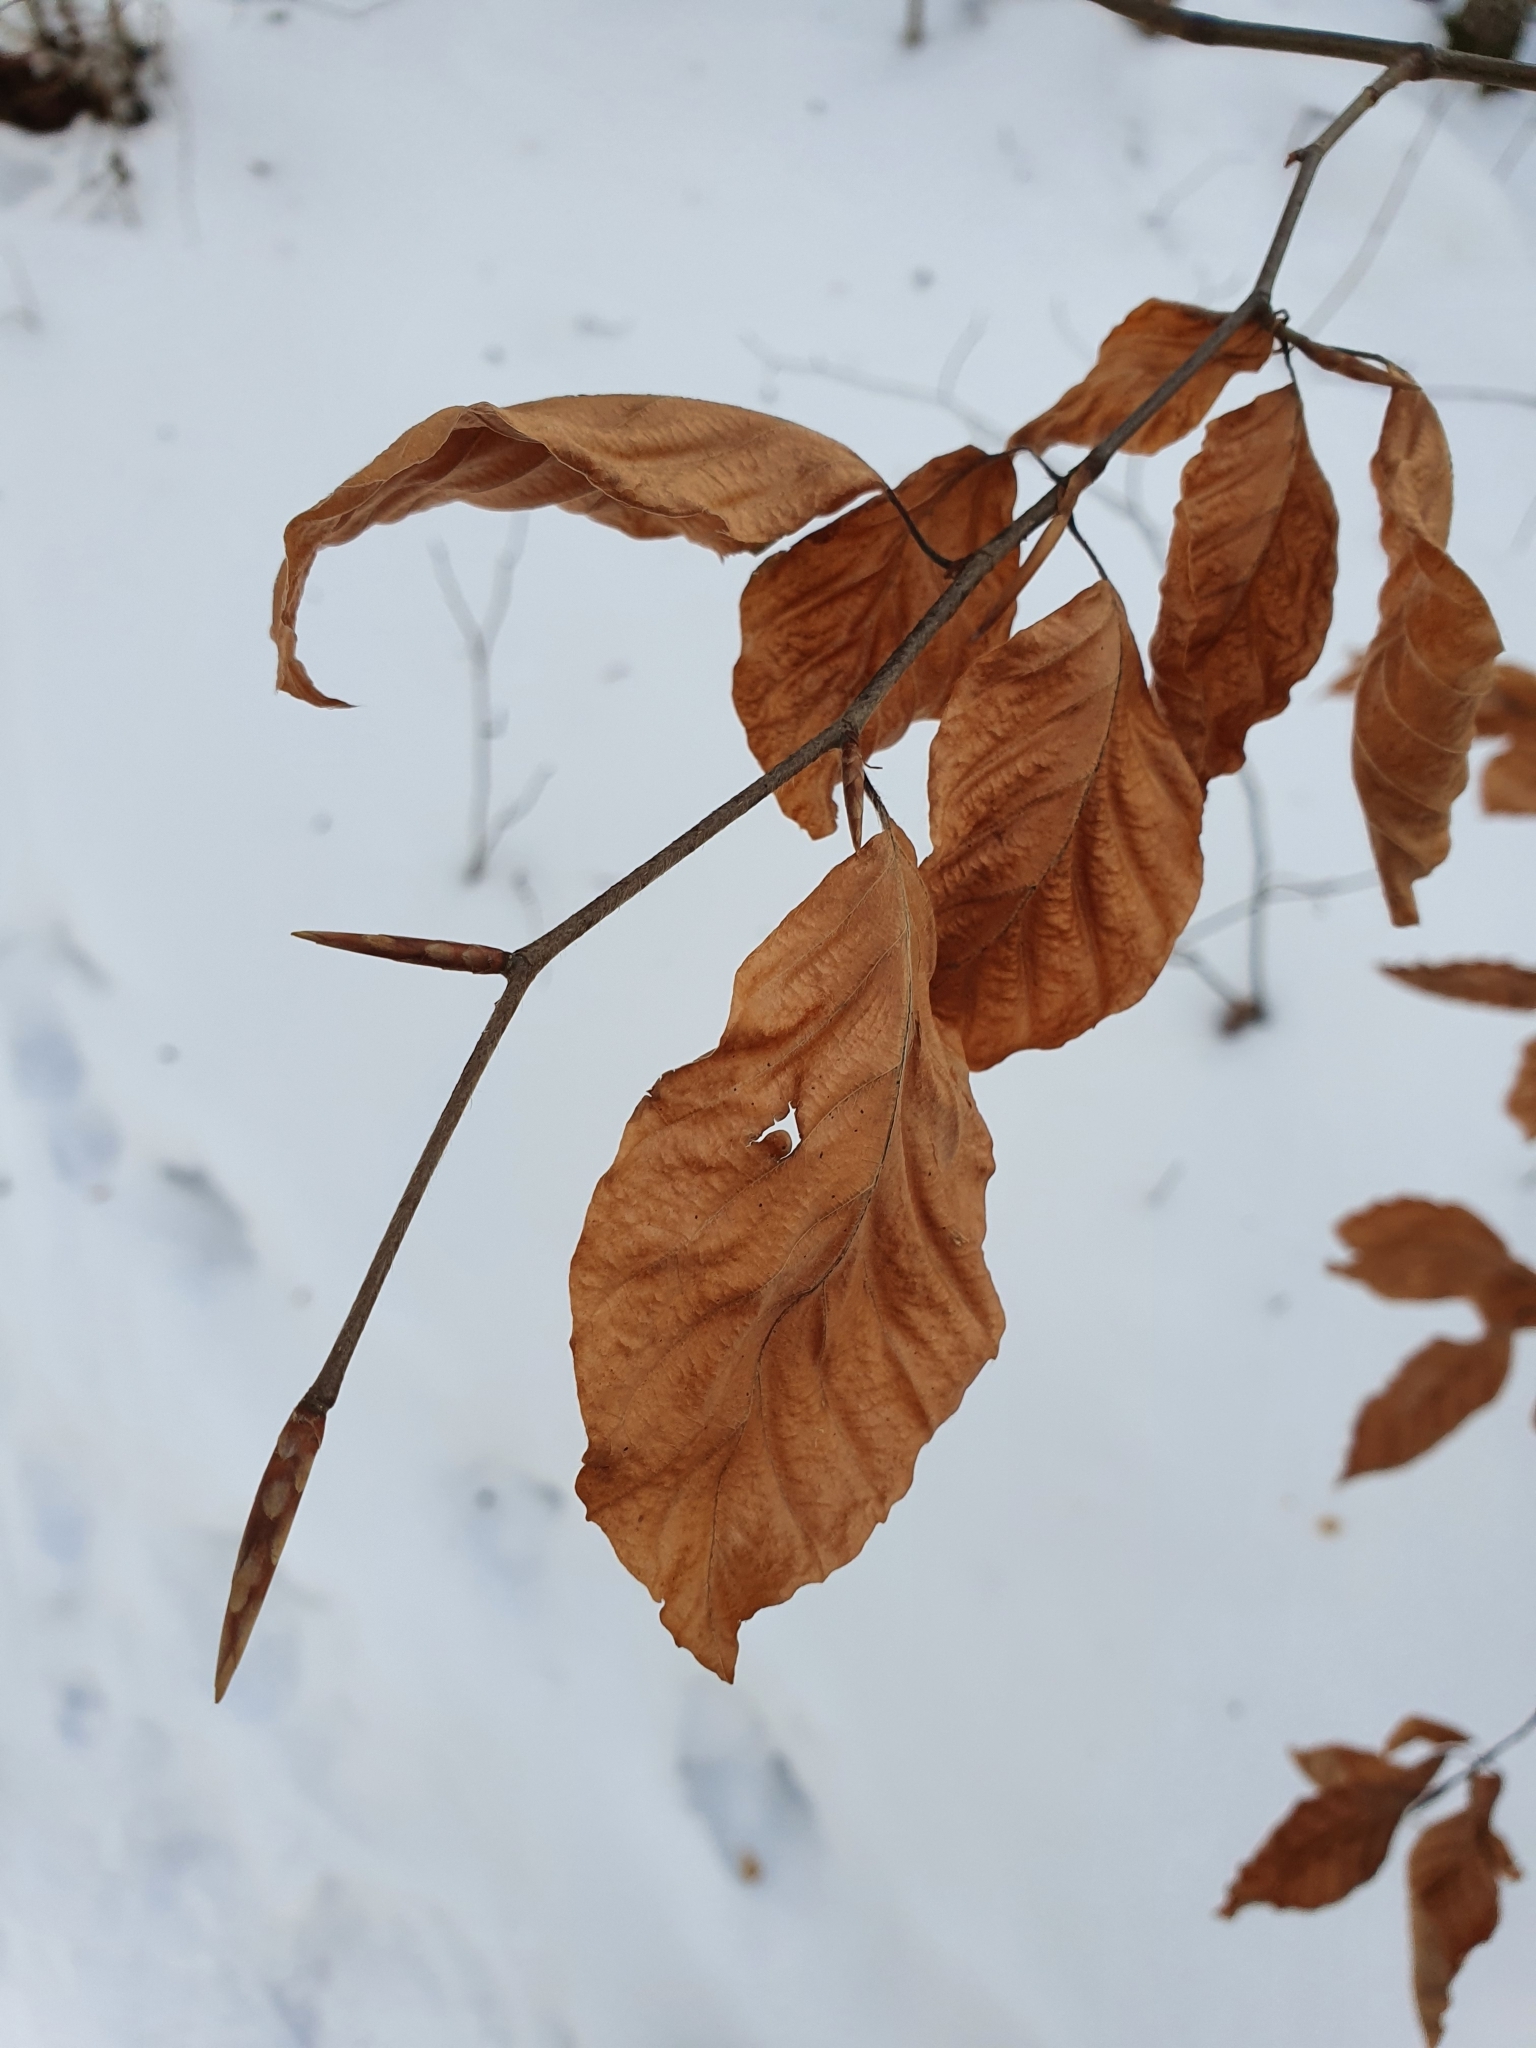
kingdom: Plantae
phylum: Tracheophyta
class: Magnoliopsida
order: Fagales
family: Fagaceae
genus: Fagus
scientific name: Fagus sylvatica
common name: Beech
